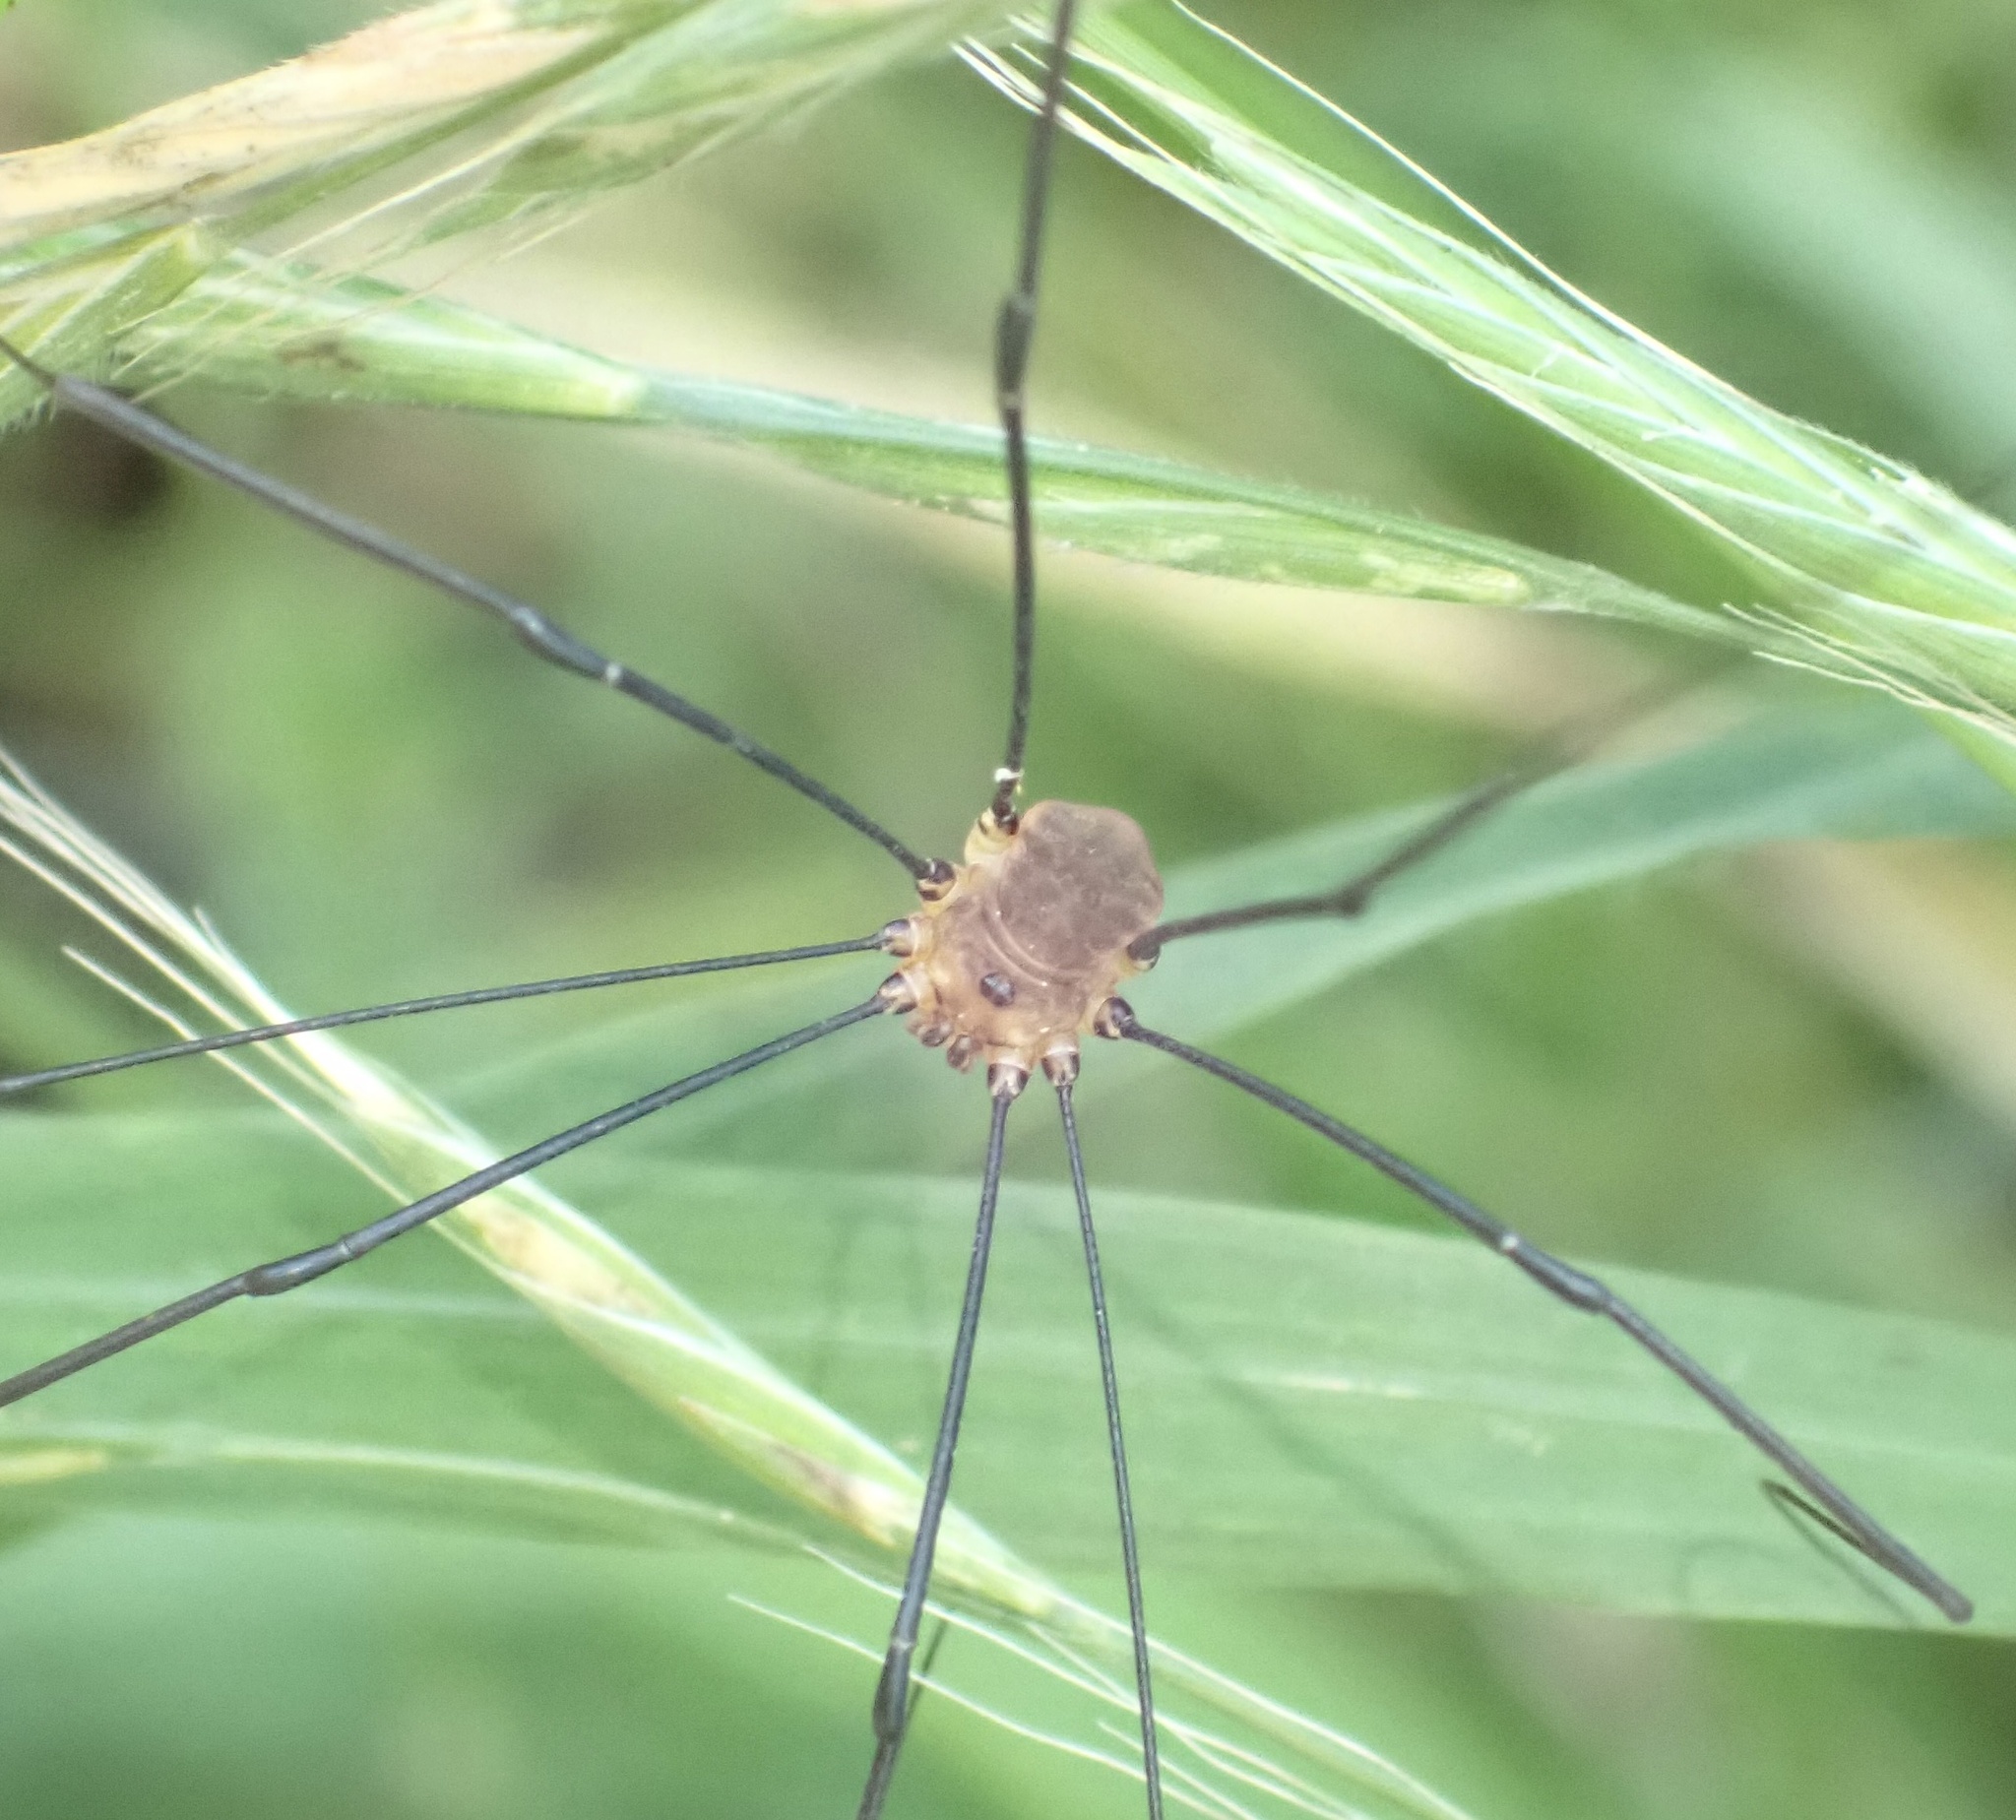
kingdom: Animalia
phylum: Arthropoda
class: Arachnida
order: Opiliones
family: Sclerosomatidae
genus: Leiobunum
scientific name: Leiobunum rotundum
